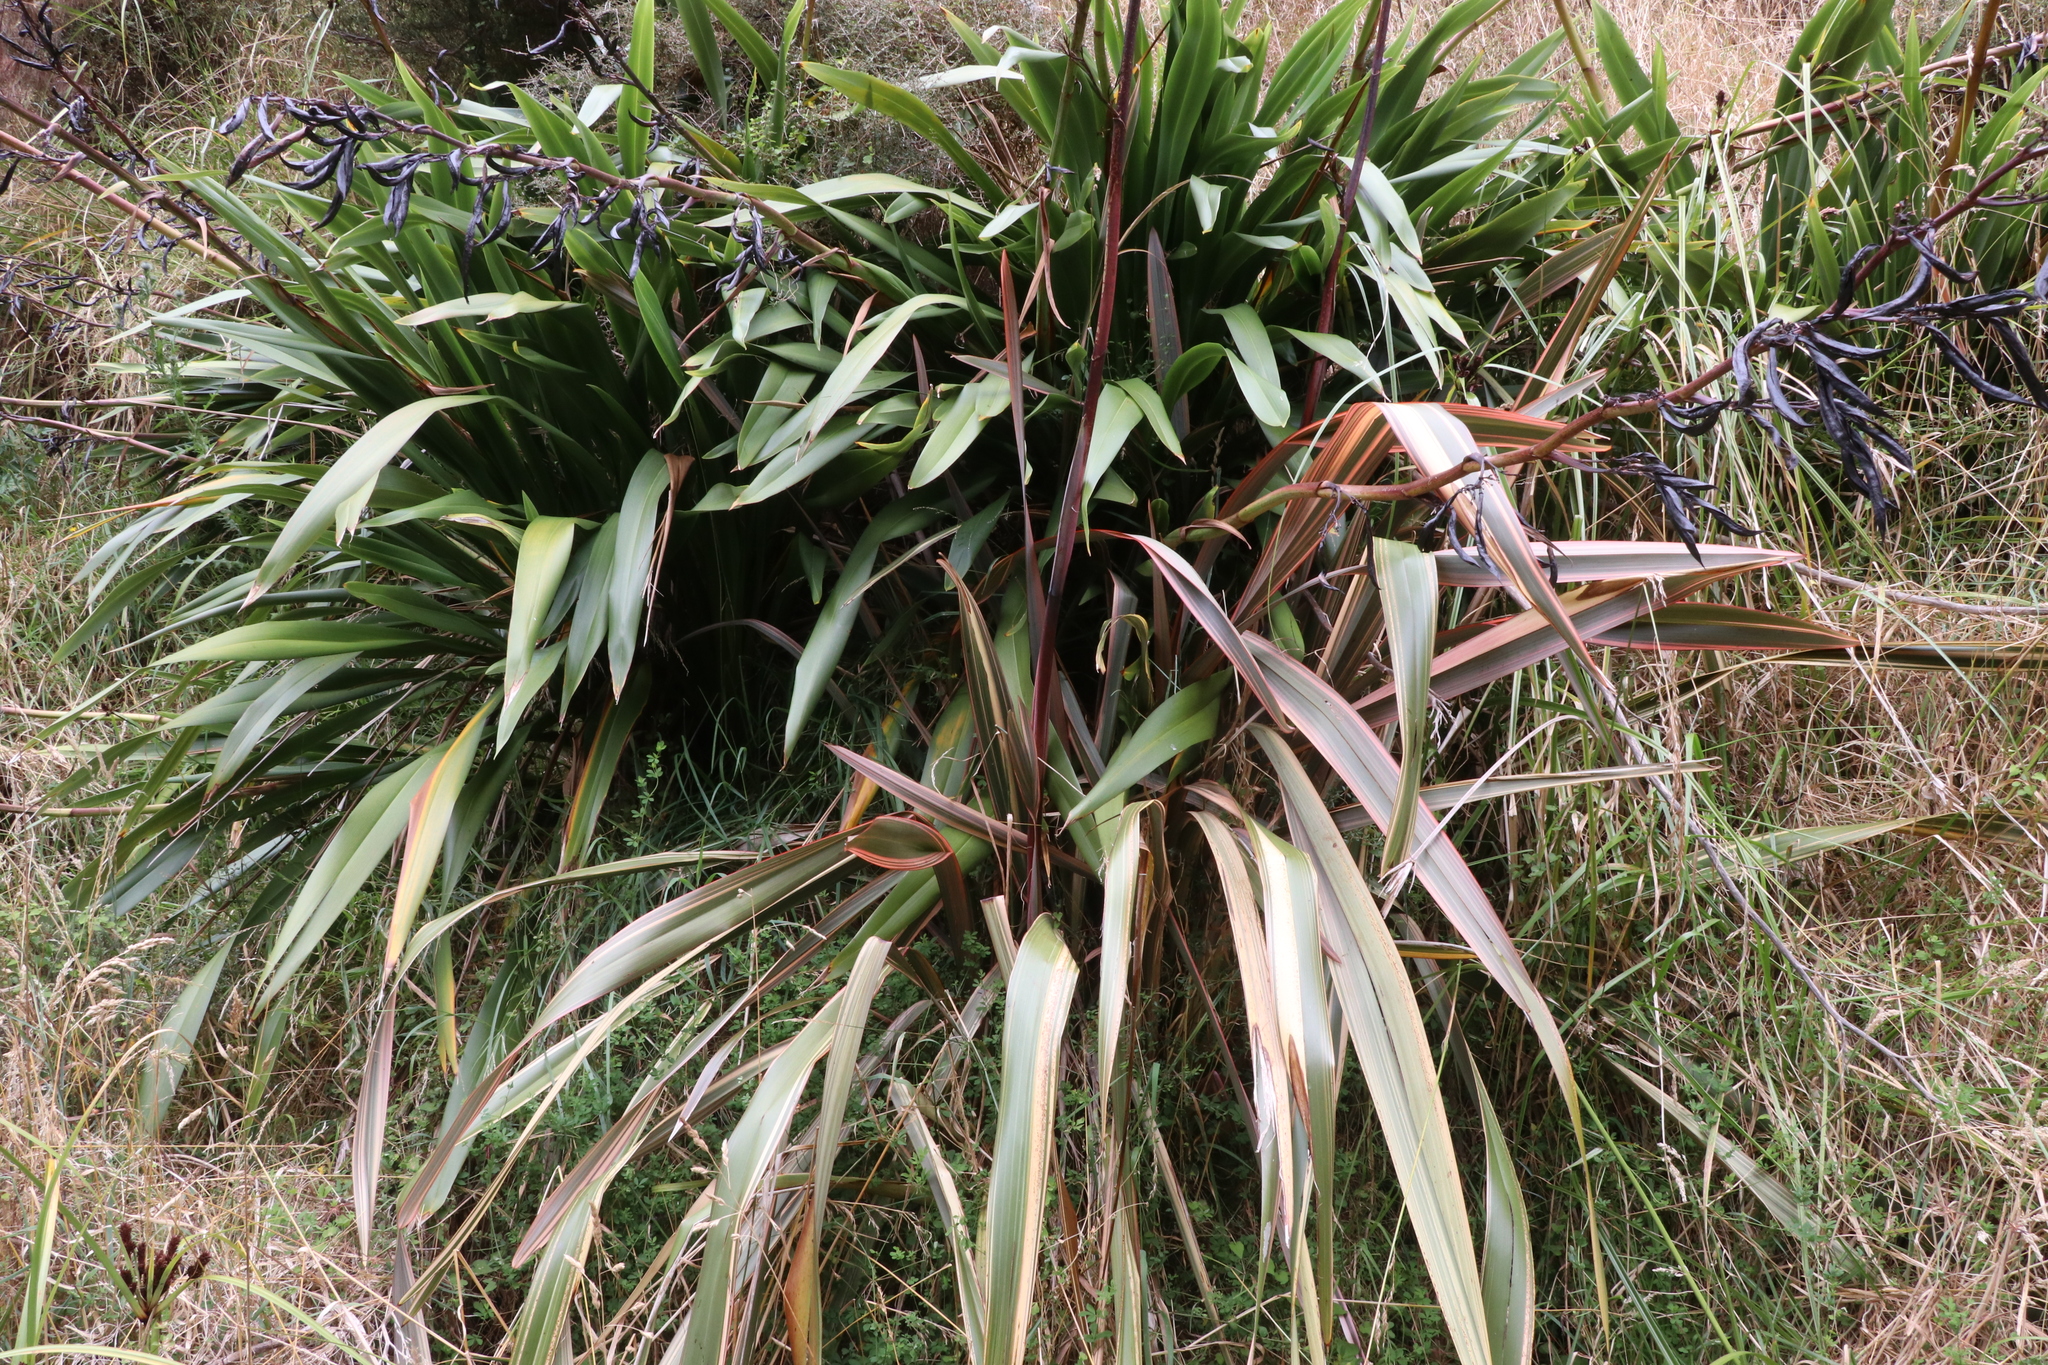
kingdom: Plantae
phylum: Tracheophyta
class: Liliopsida
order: Asparagales
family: Asphodelaceae
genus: Phormium
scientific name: Phormium colensoi
